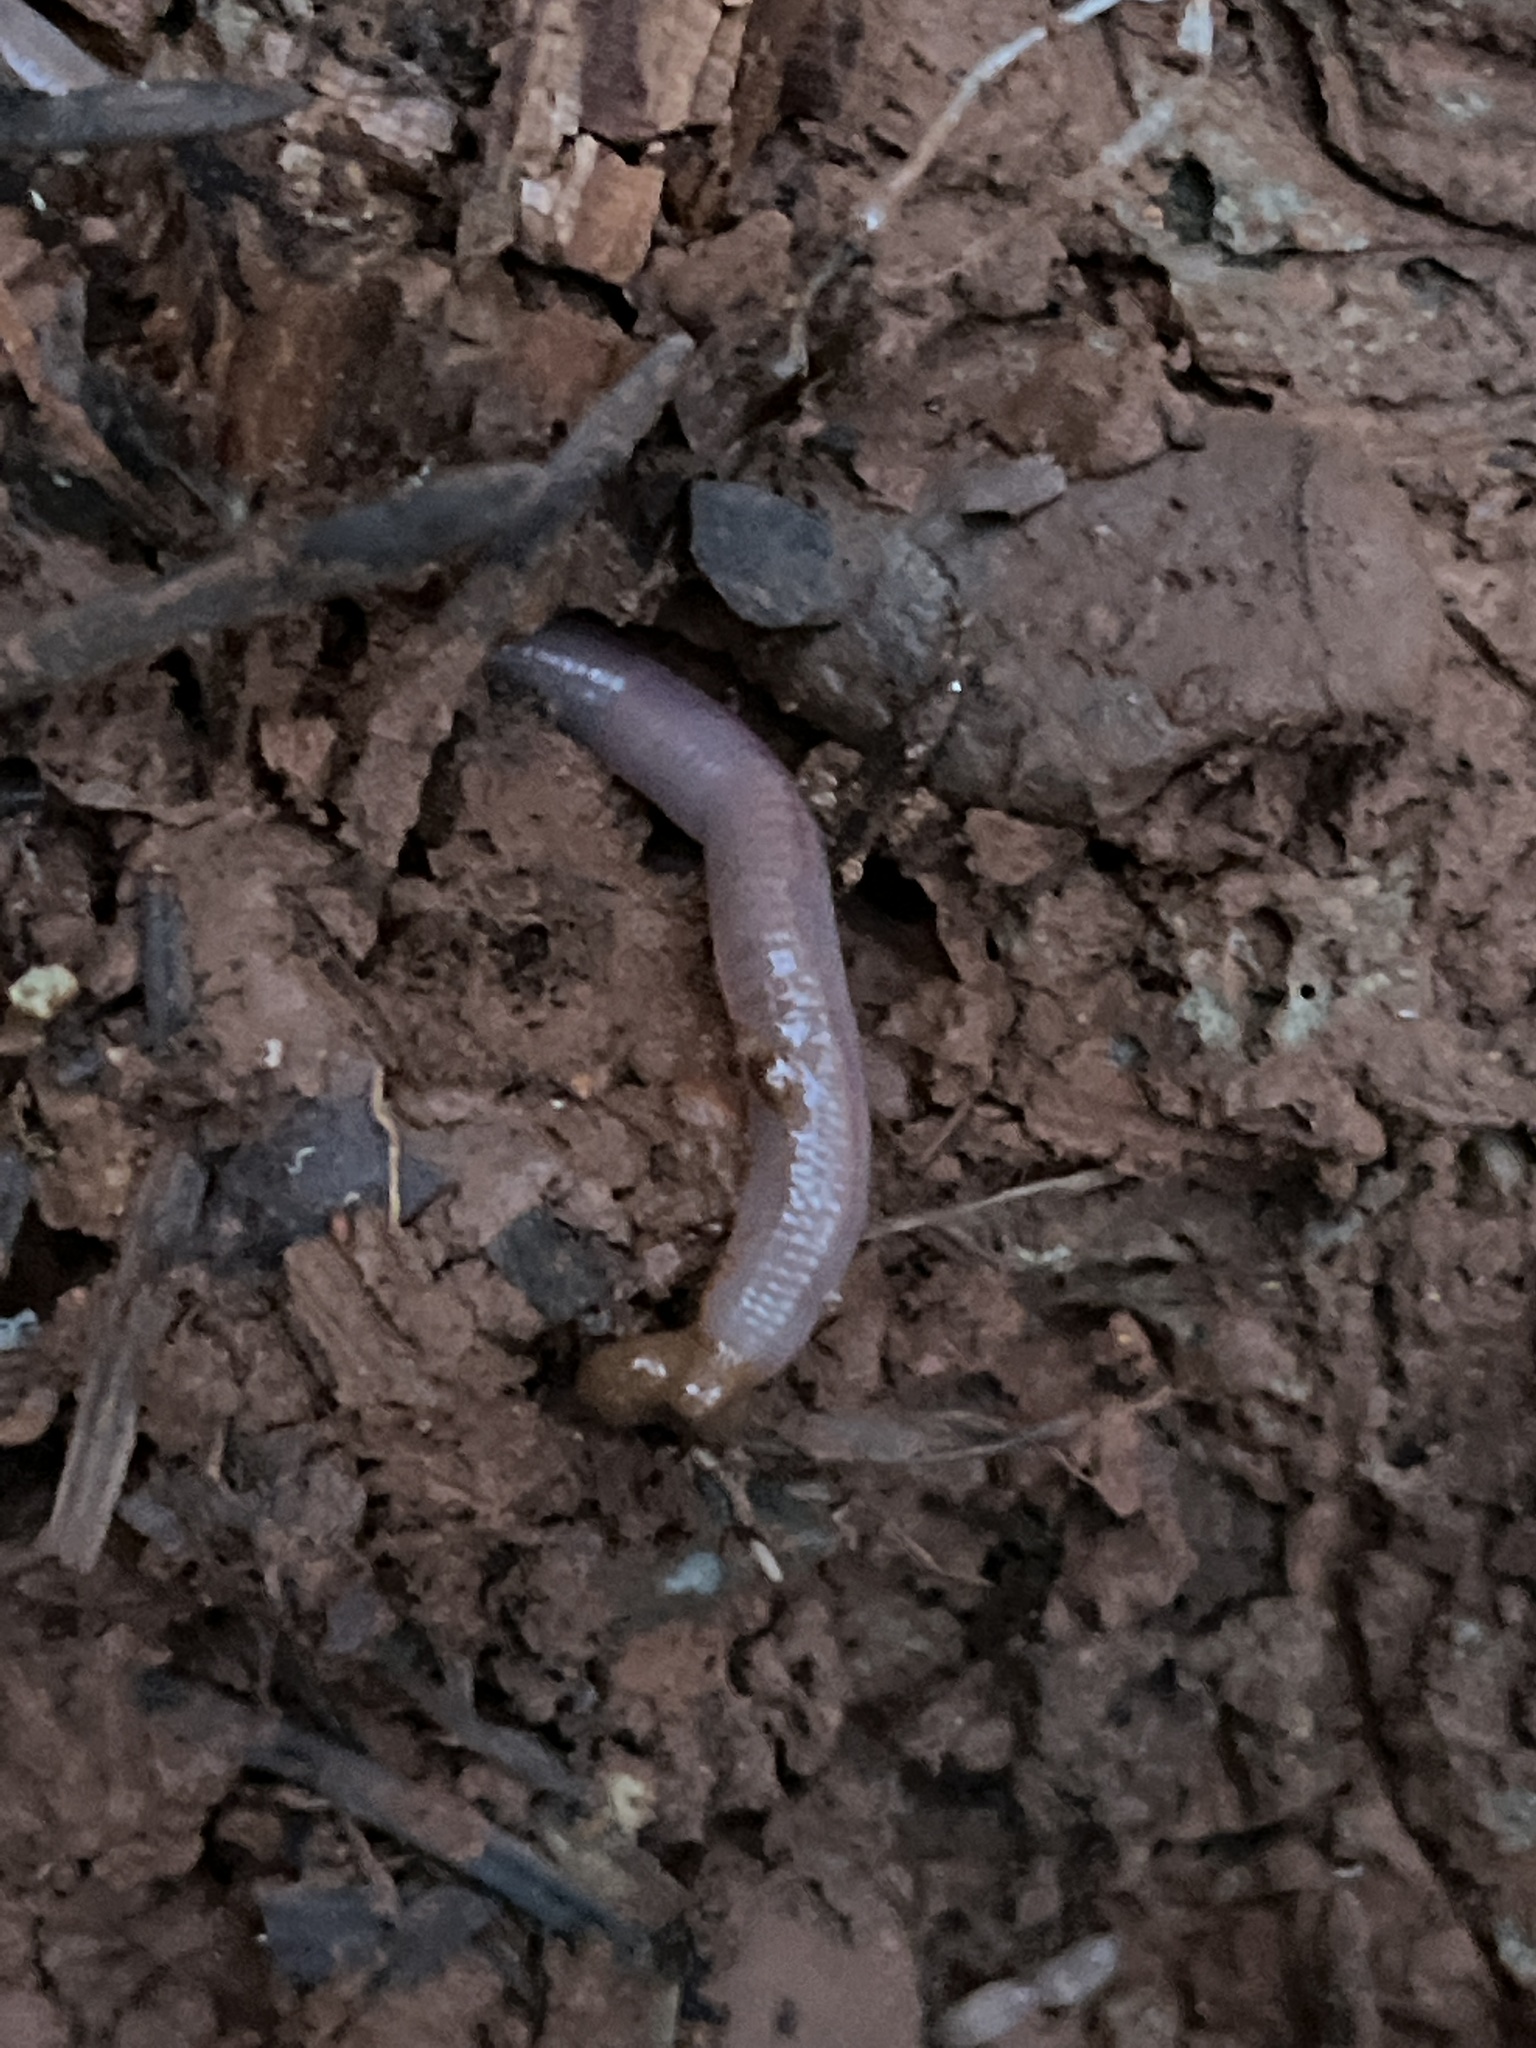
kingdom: Animalia
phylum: Annelida
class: Clitellata
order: Crassiclitellata
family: Lumbricidae
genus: Lumbricus
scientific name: Lumbricus terrestris
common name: Common earthworm
